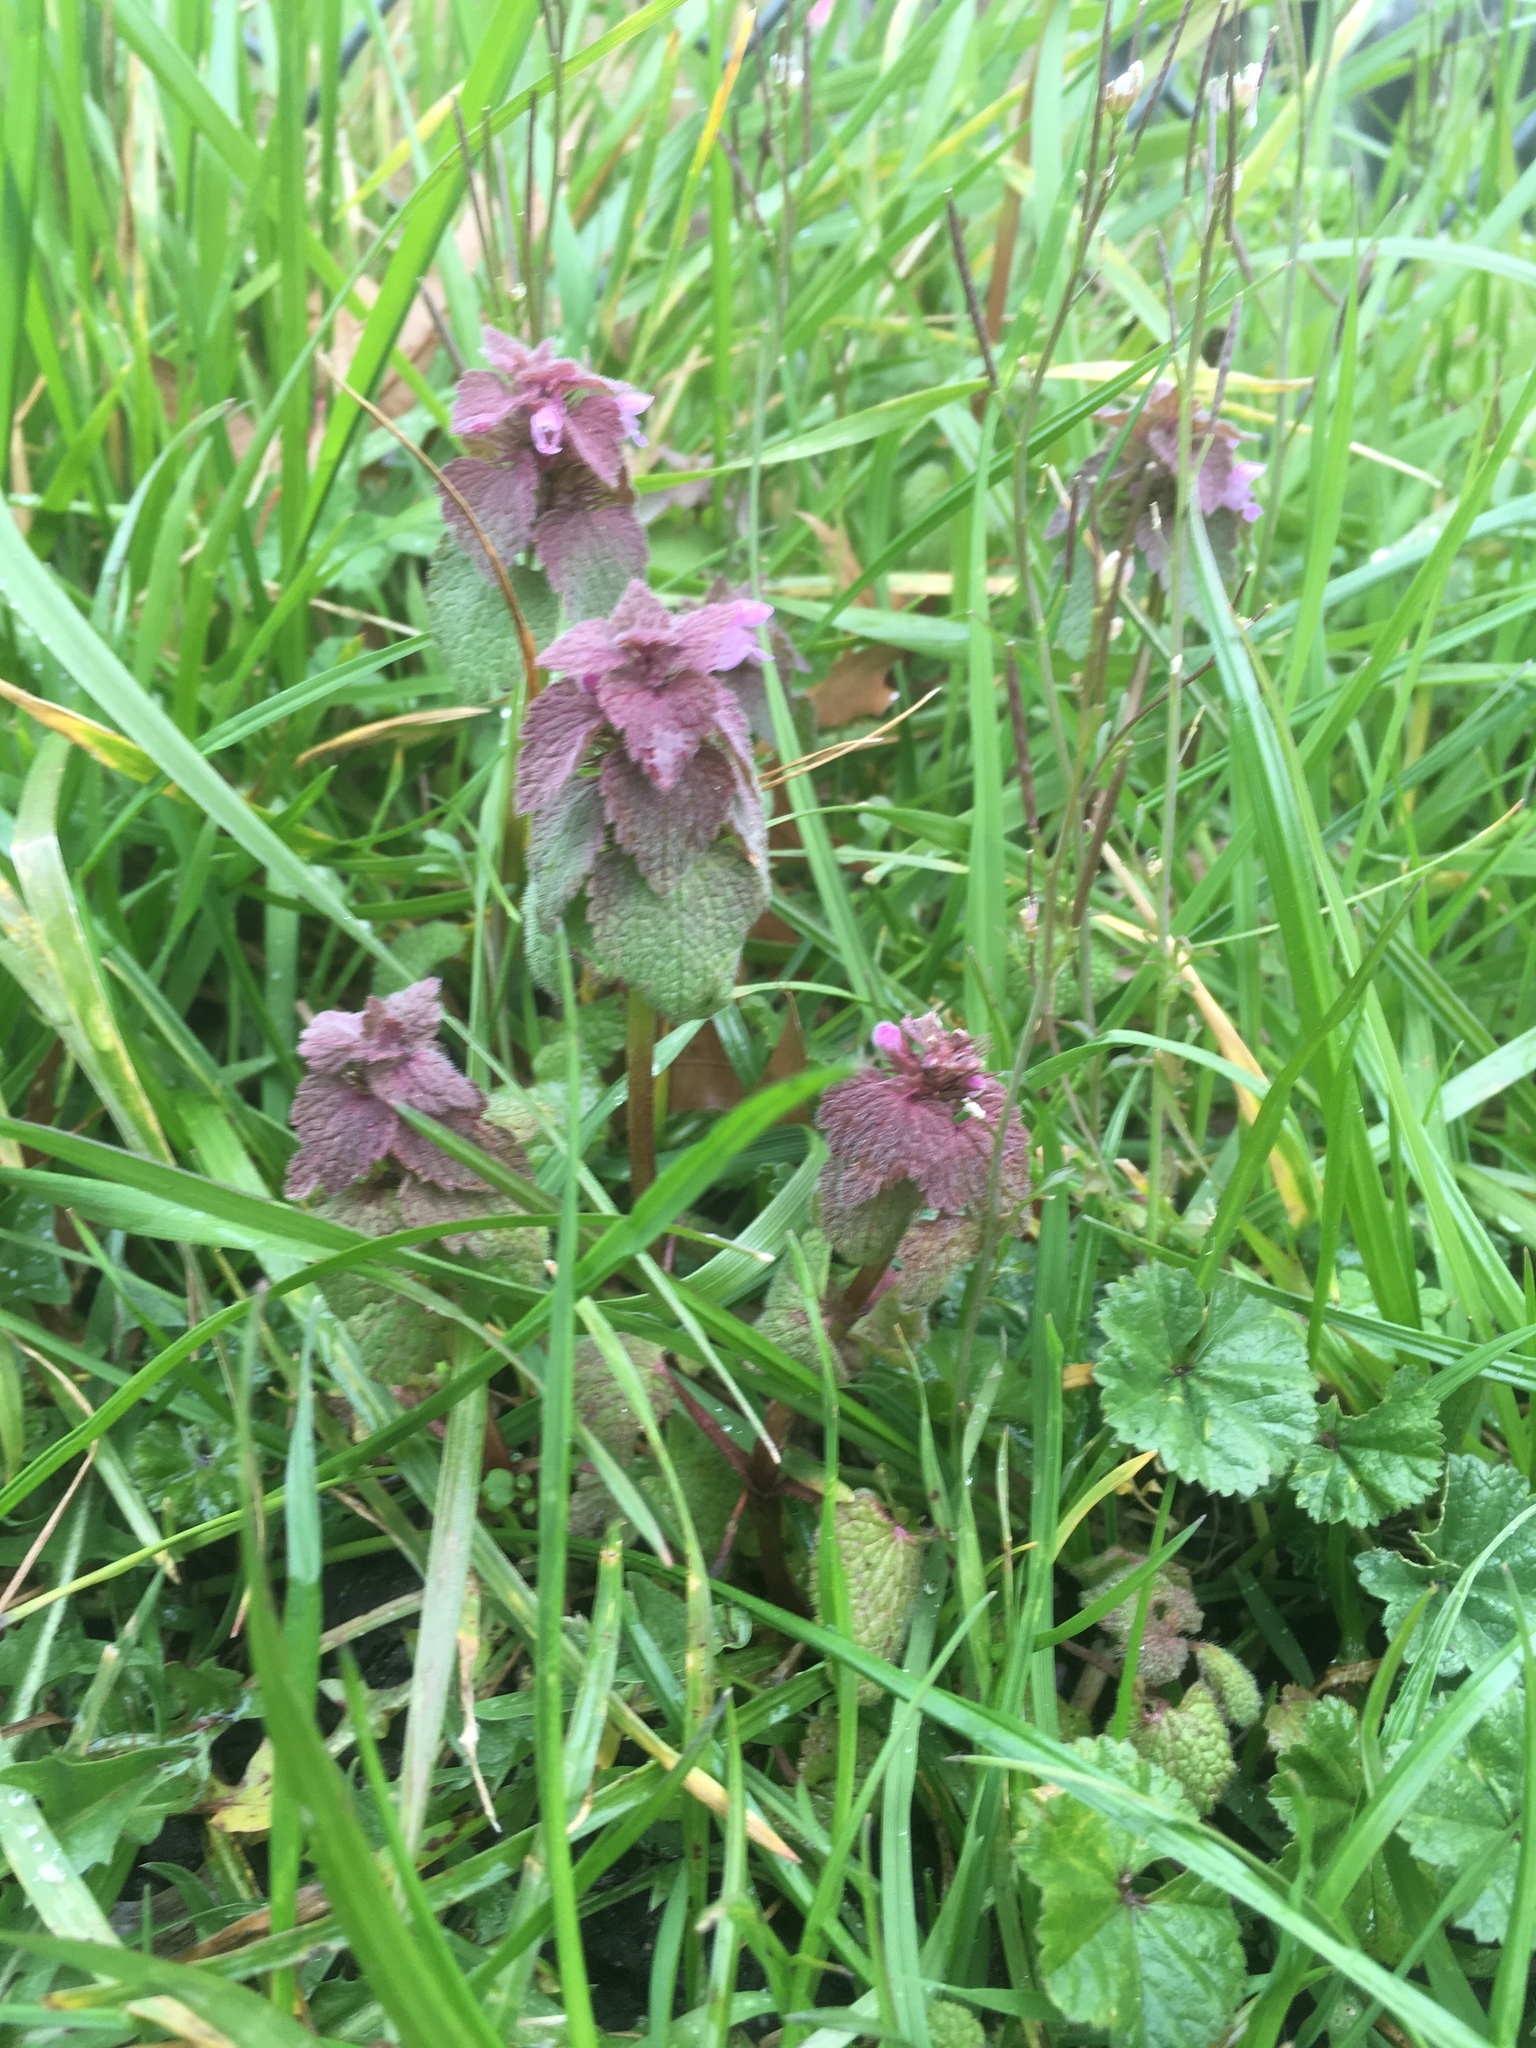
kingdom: Plantae
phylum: Tracheophyta
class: Magnoliopsida
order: Lamiales
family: Lamiaceae
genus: Lamium
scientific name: Lamium purpureum
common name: Red dead-nettle
